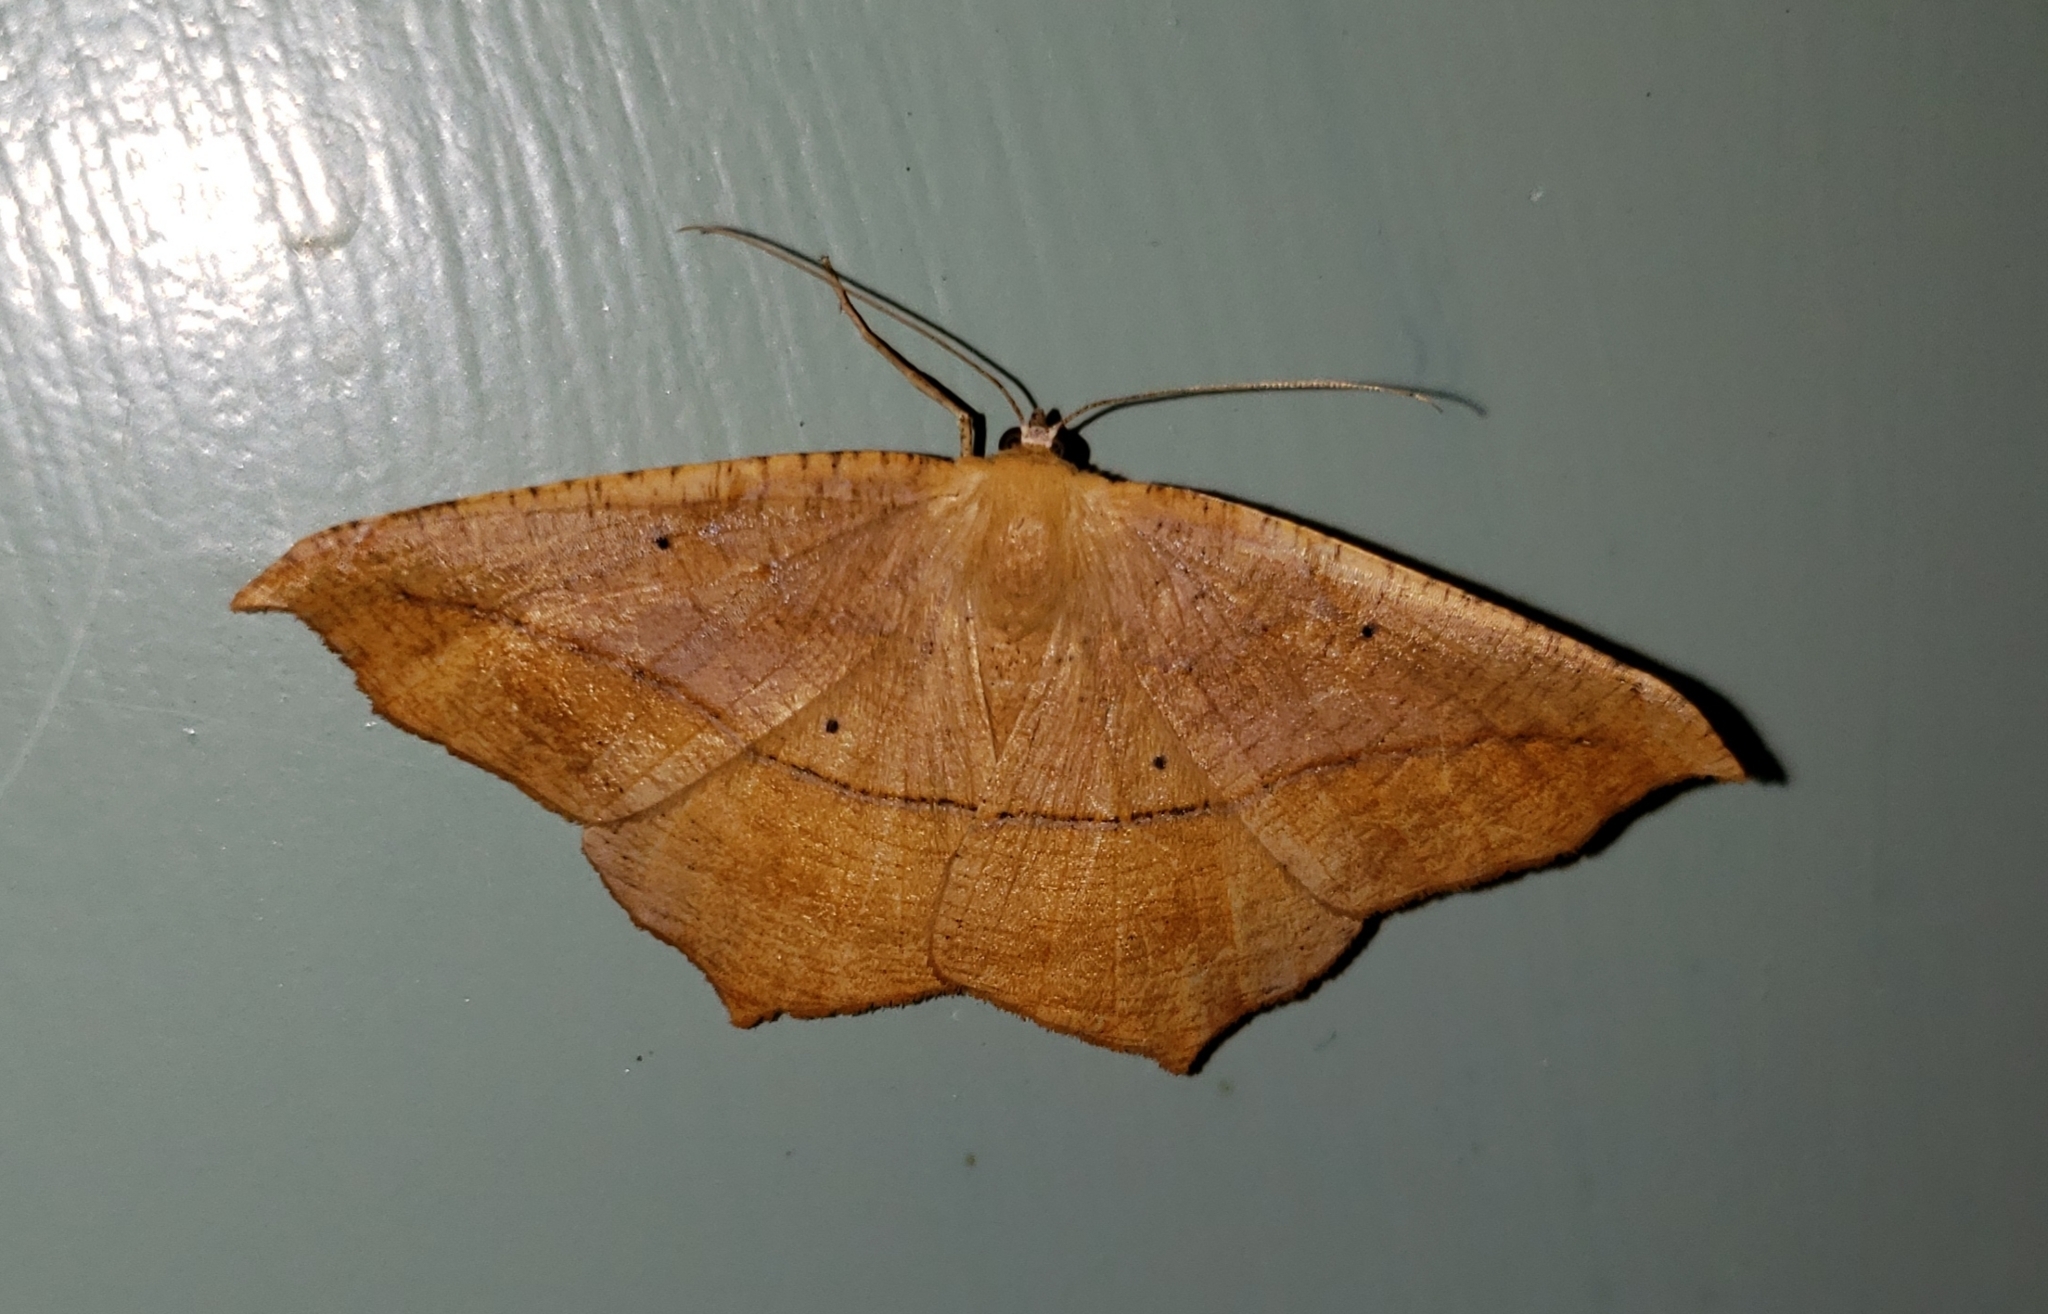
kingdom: Animalia
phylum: Arthropoda
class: Insecta
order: Lepidoptera
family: Geometridae
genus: Prochoerodes
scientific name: Prochoerodes lineola
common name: Large maple spanworm
